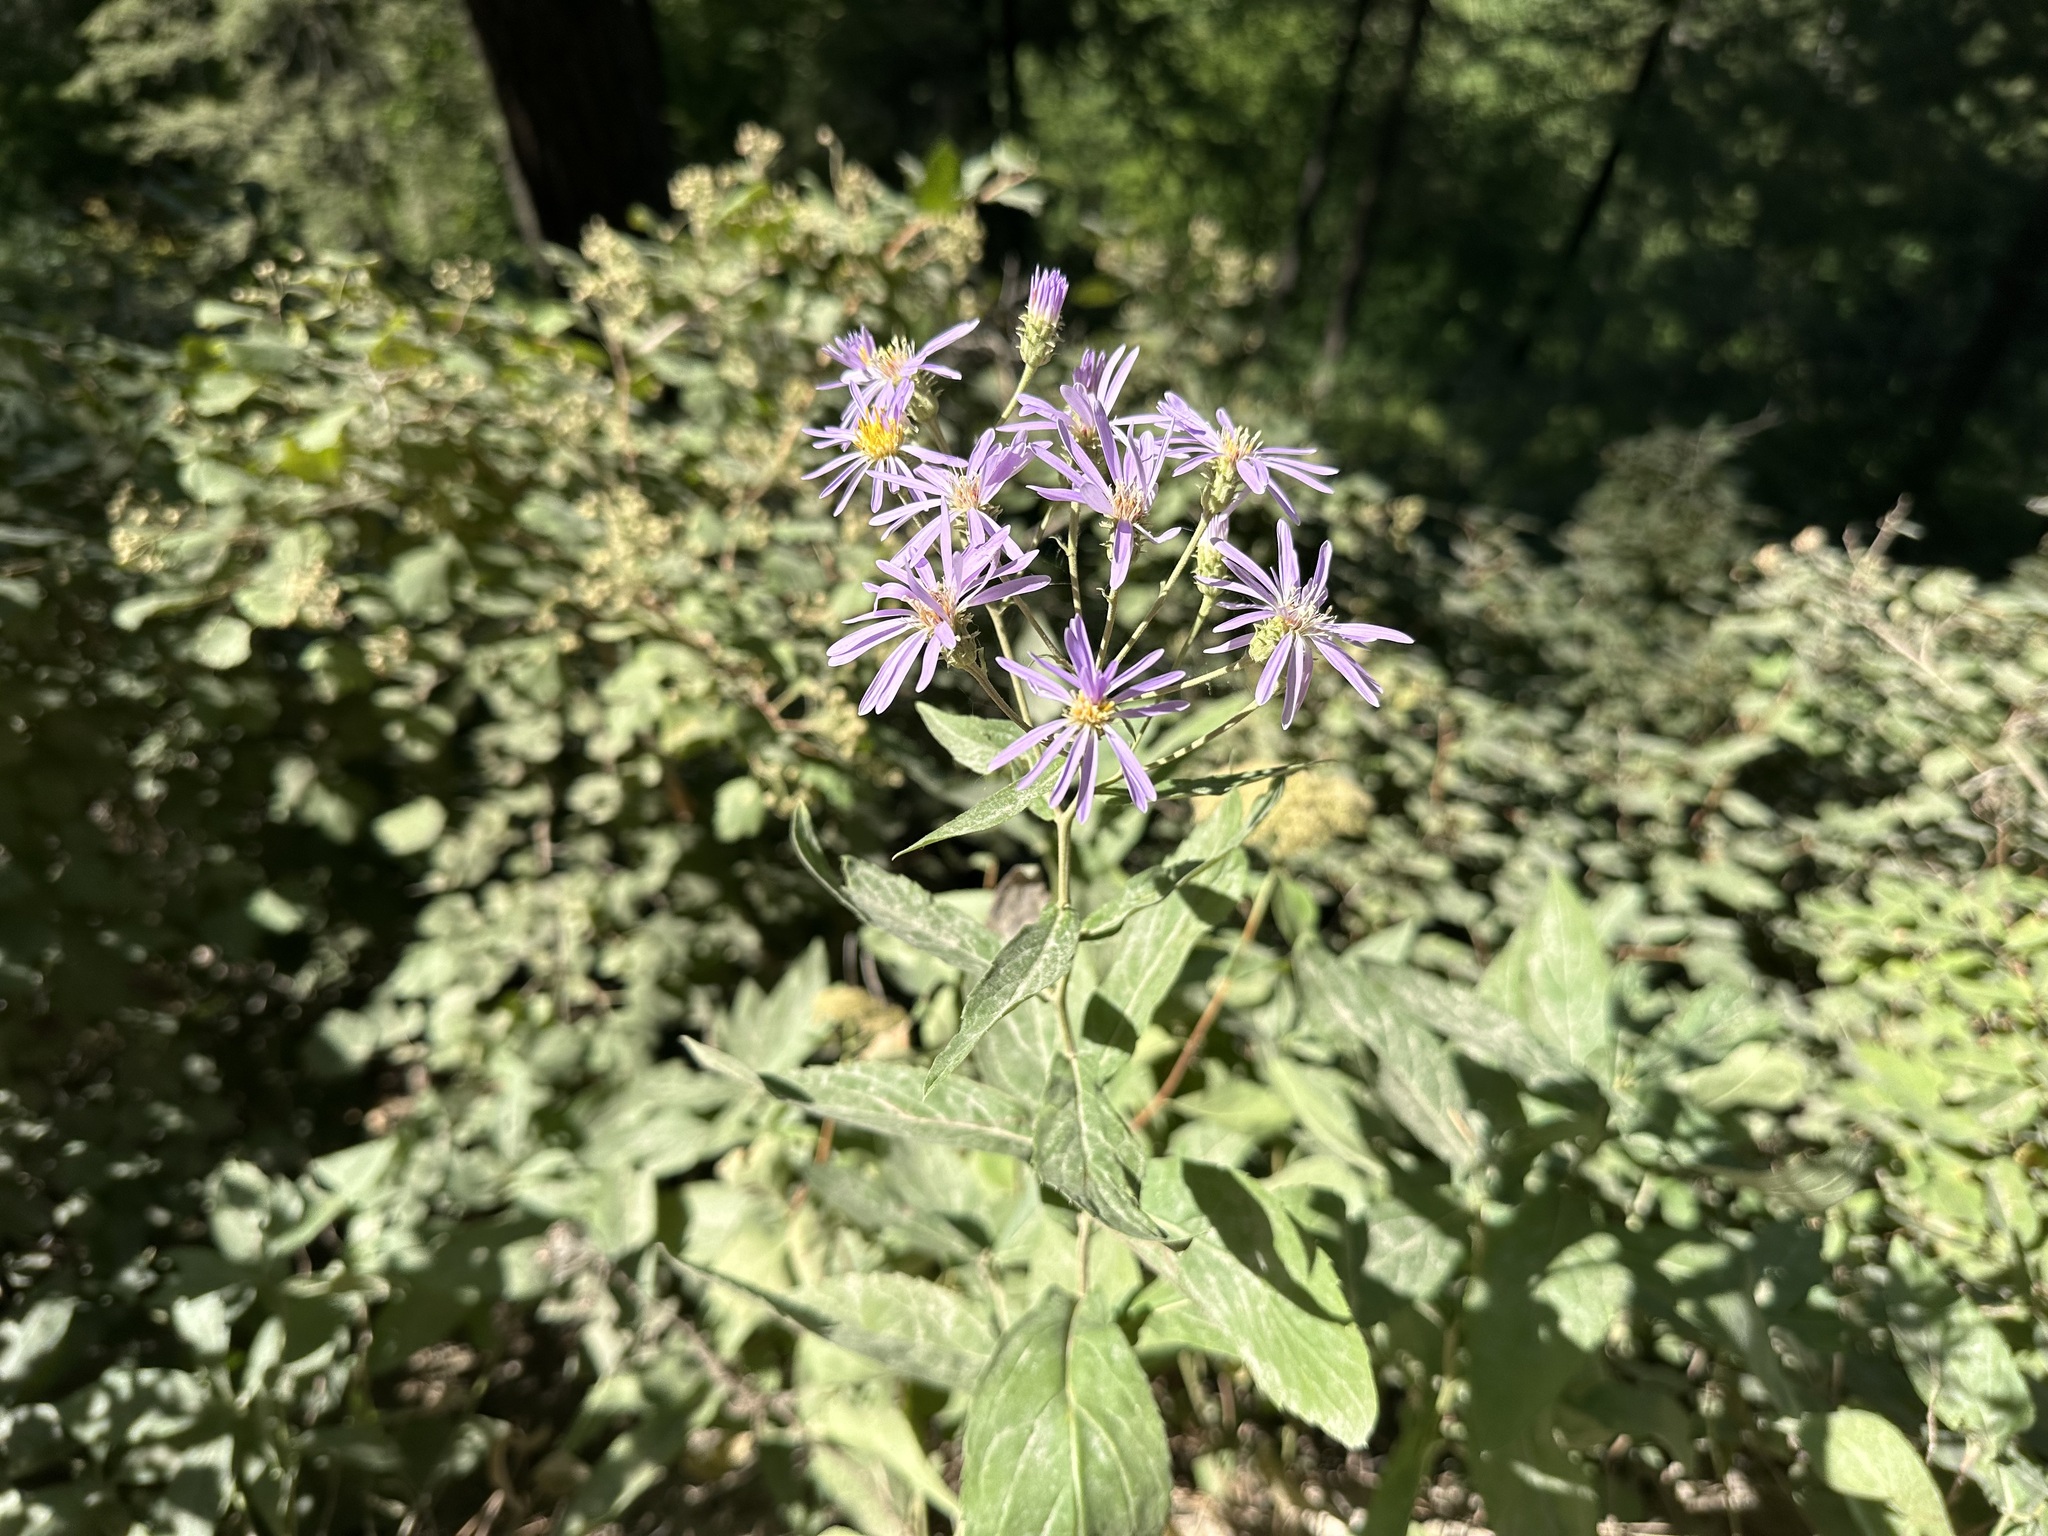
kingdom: Plantae
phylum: Tracheophyta
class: Magnoliopsida
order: Asterales
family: Asteraceae
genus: Eurybia
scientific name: Eurybia conspicua
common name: Showy aster
